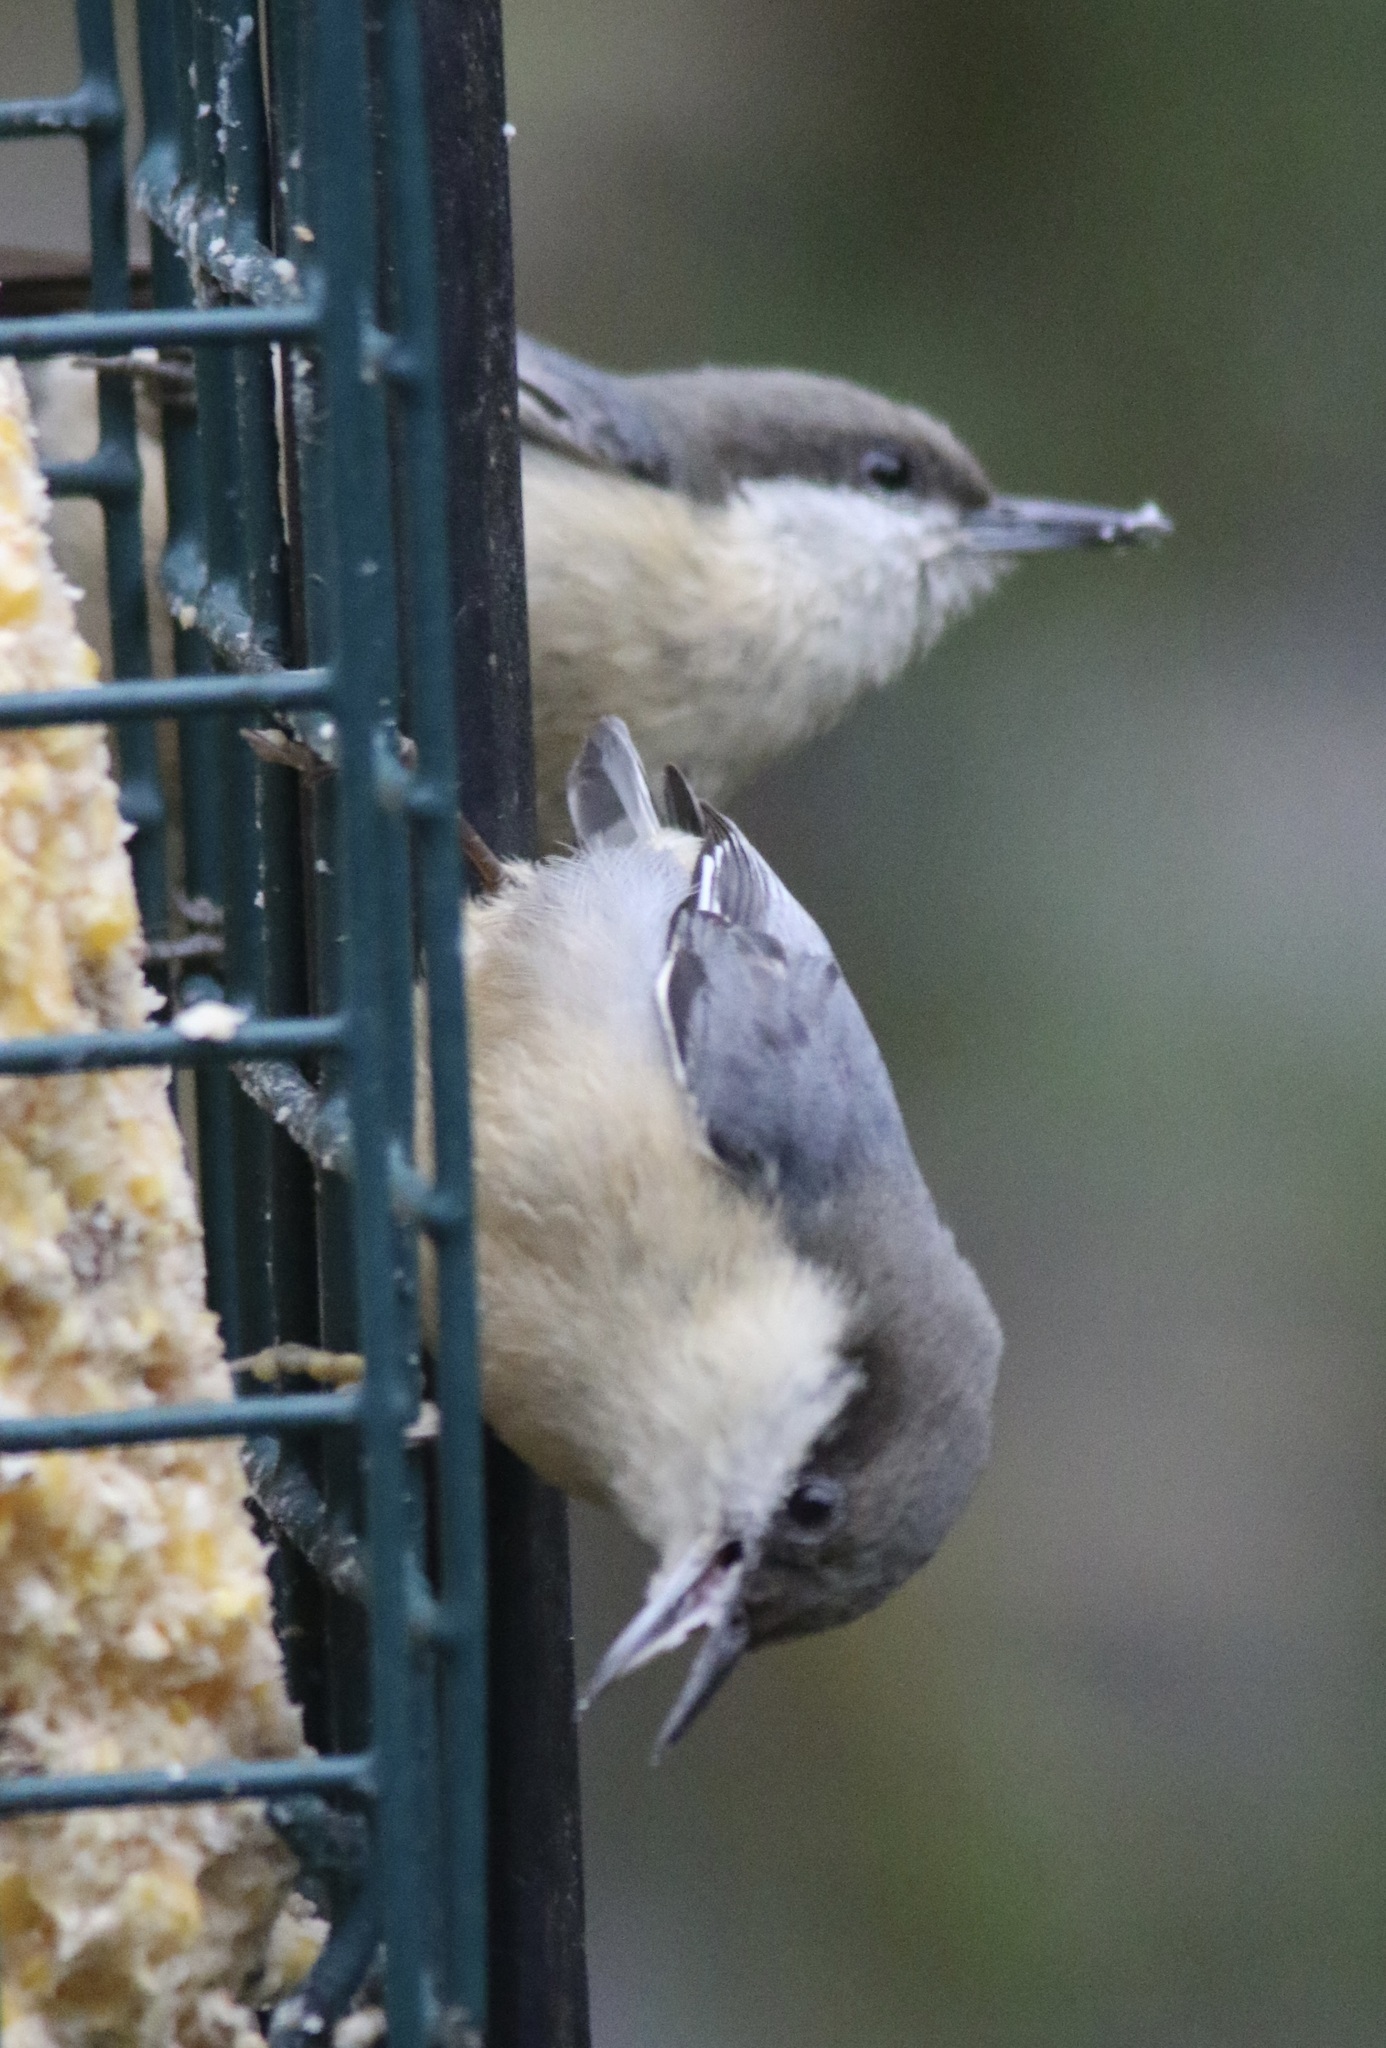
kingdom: Animalia
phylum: Chordata
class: Aves
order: Passeriformes
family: Sittidae
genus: Sitta
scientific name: Sitta pygmaea
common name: Pygmy nuthatch
